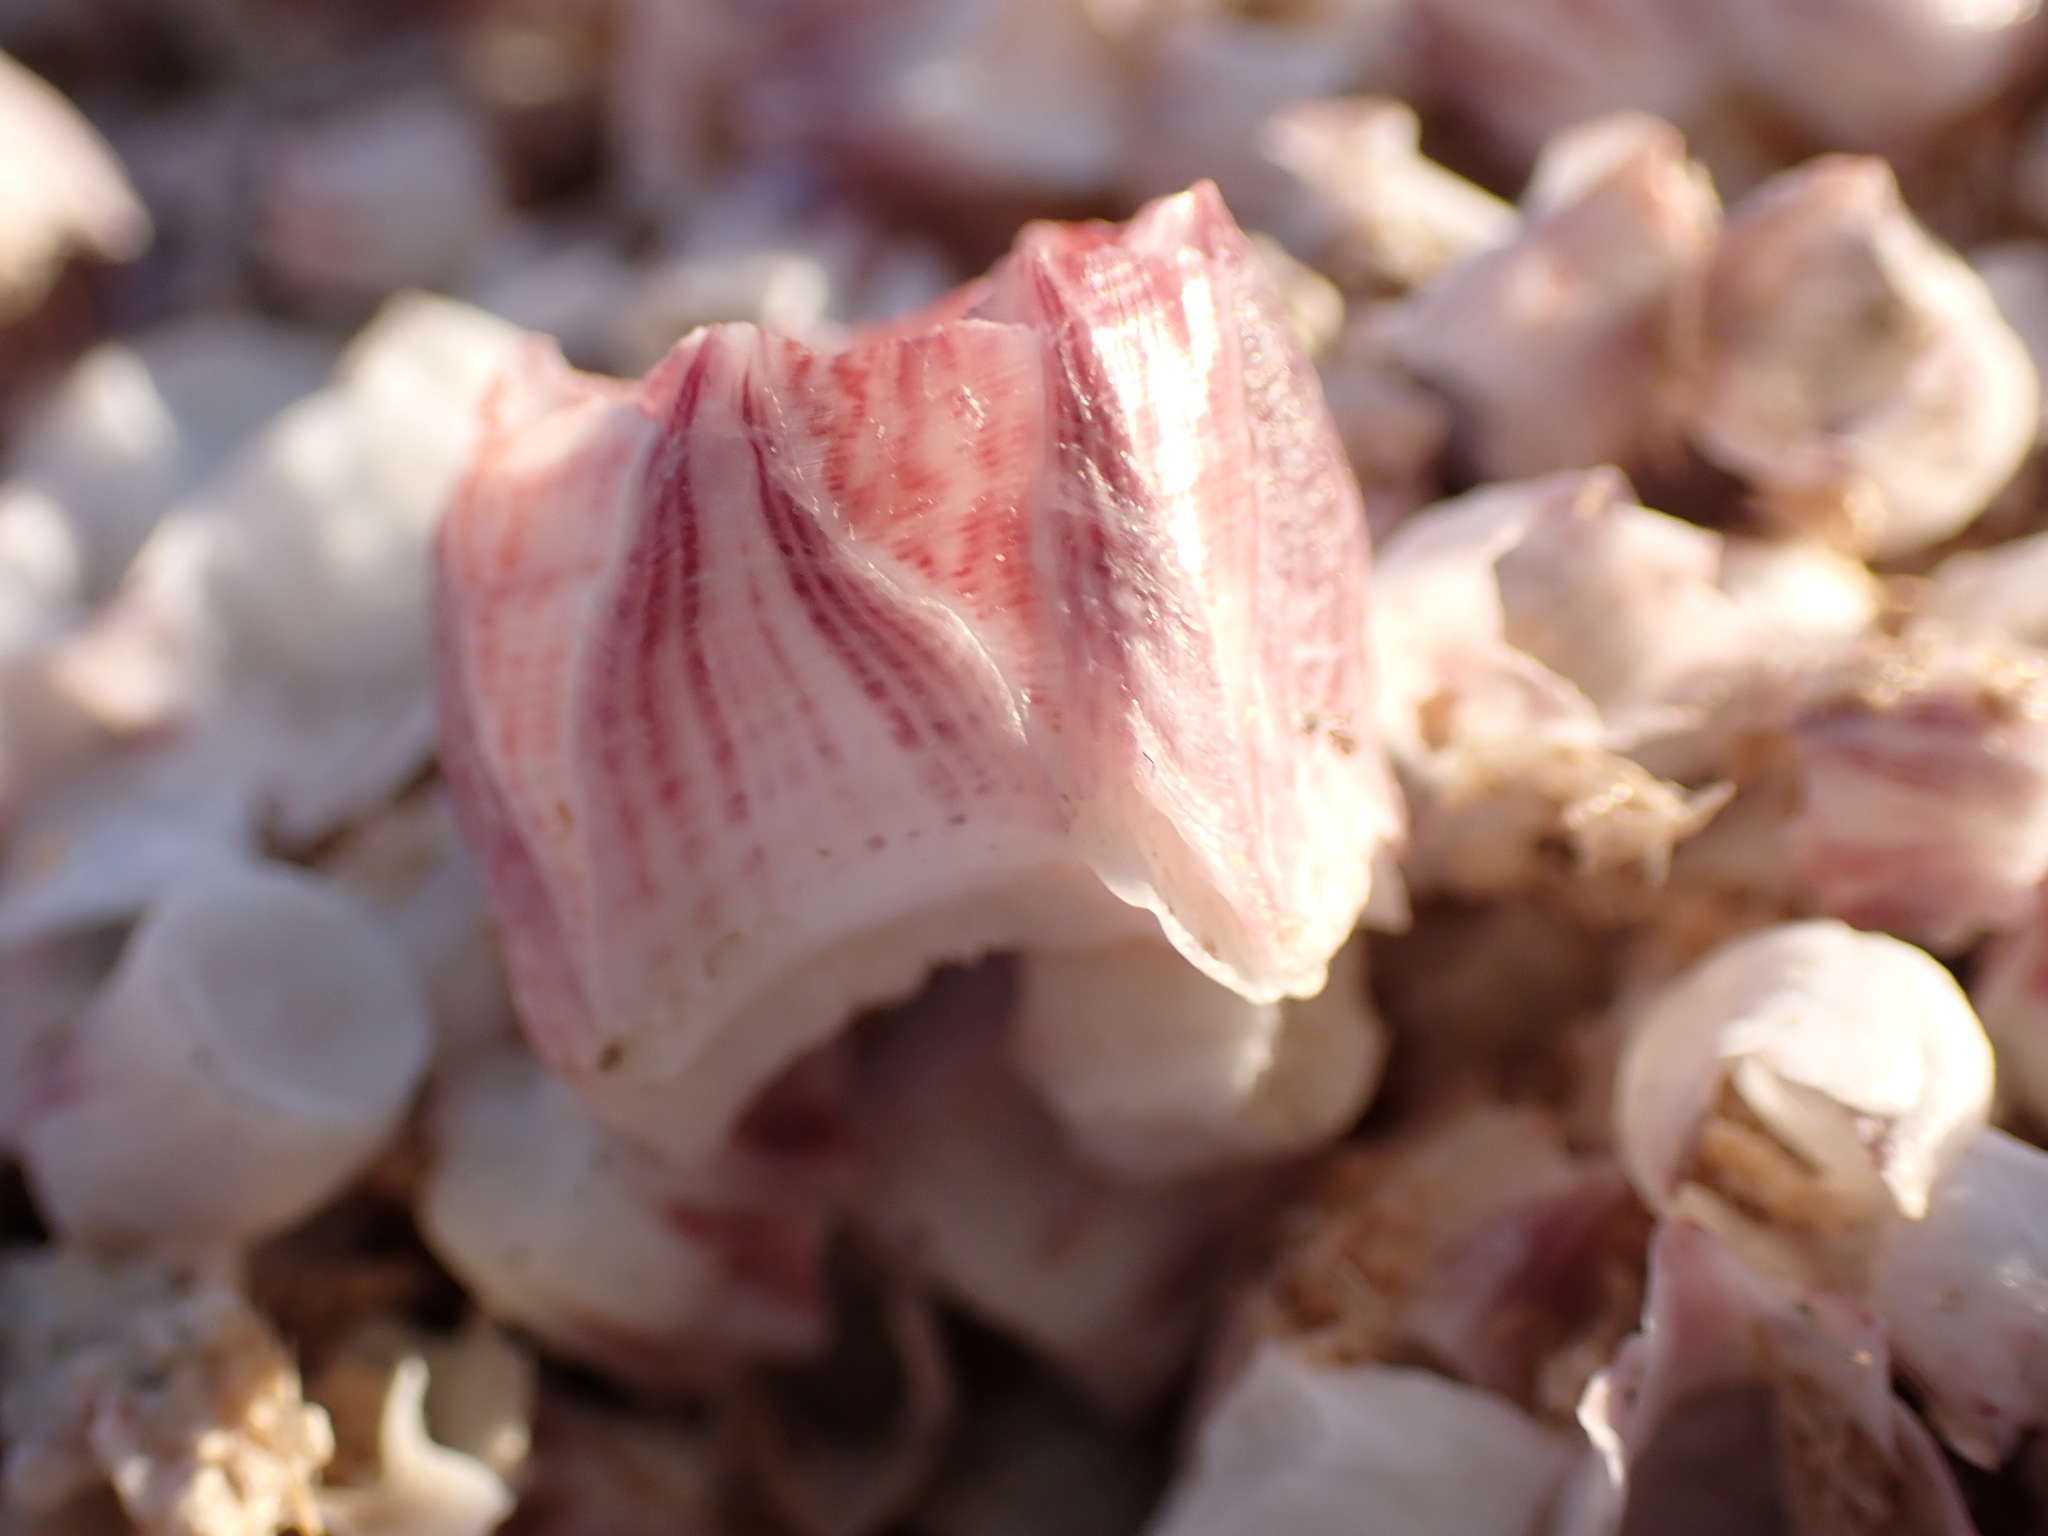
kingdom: Animalia
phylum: Arthropoda
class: Maxillopoda
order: Sessilia
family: Balanidae
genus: Amphibalanus
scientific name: Amphibalanus amphitrite
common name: Striped acorn barnacle
